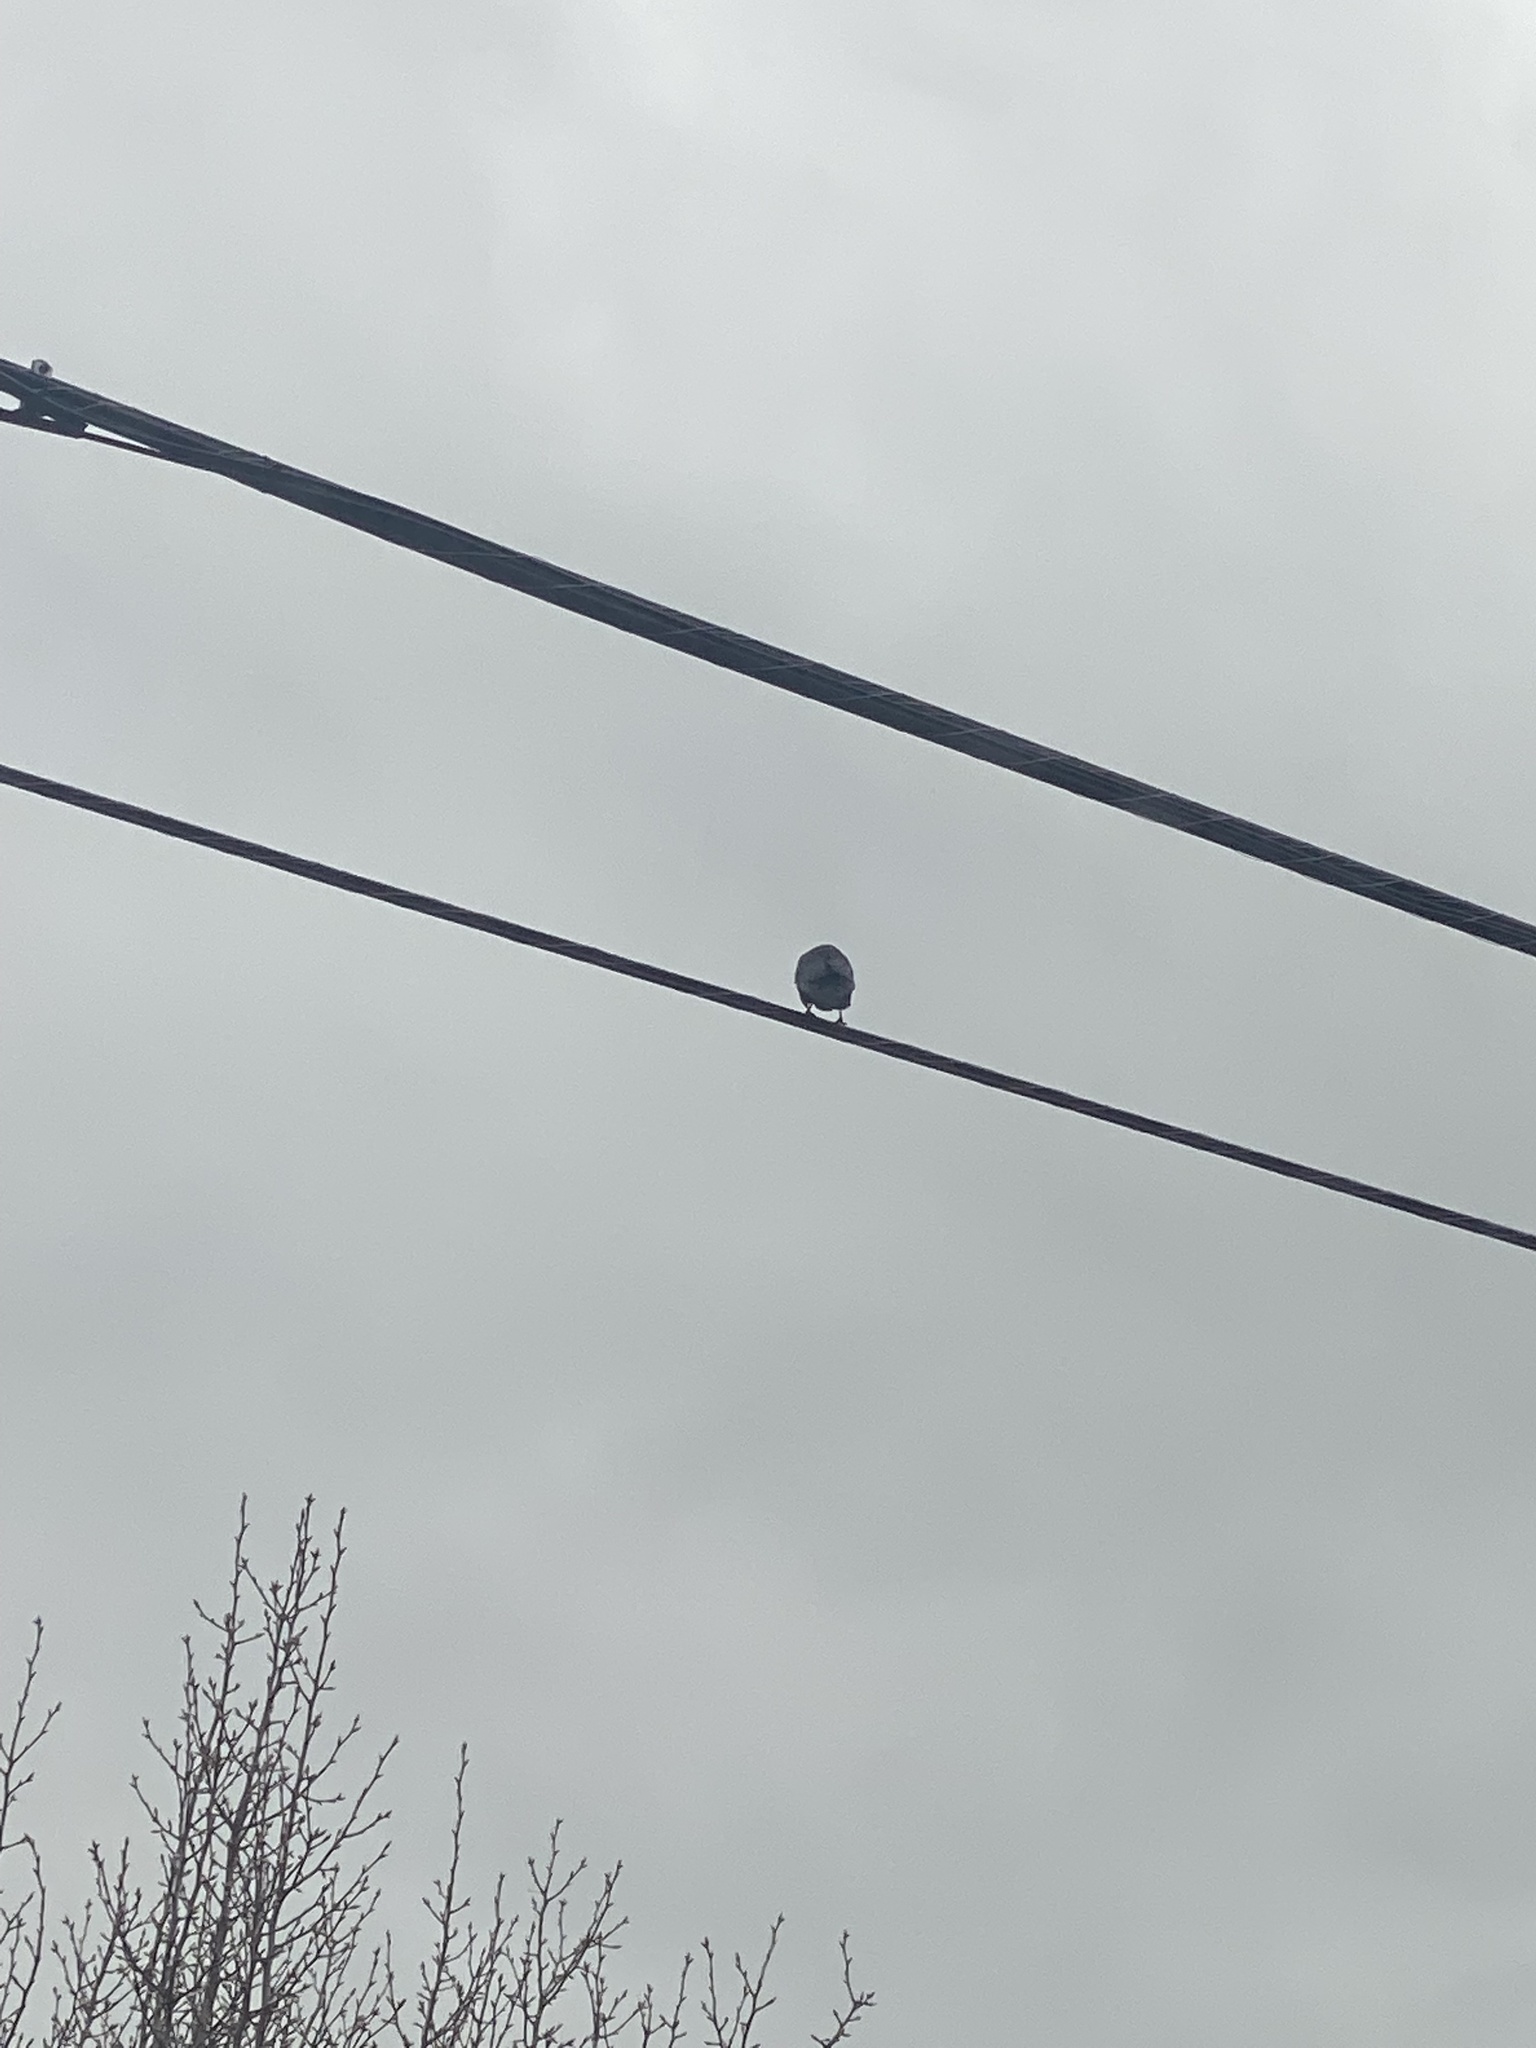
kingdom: Animalia
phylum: Chordata
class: Aves
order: Passeriformes
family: Corvidae
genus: Corvus
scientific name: Corvus brachyrhynchos
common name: American crow
